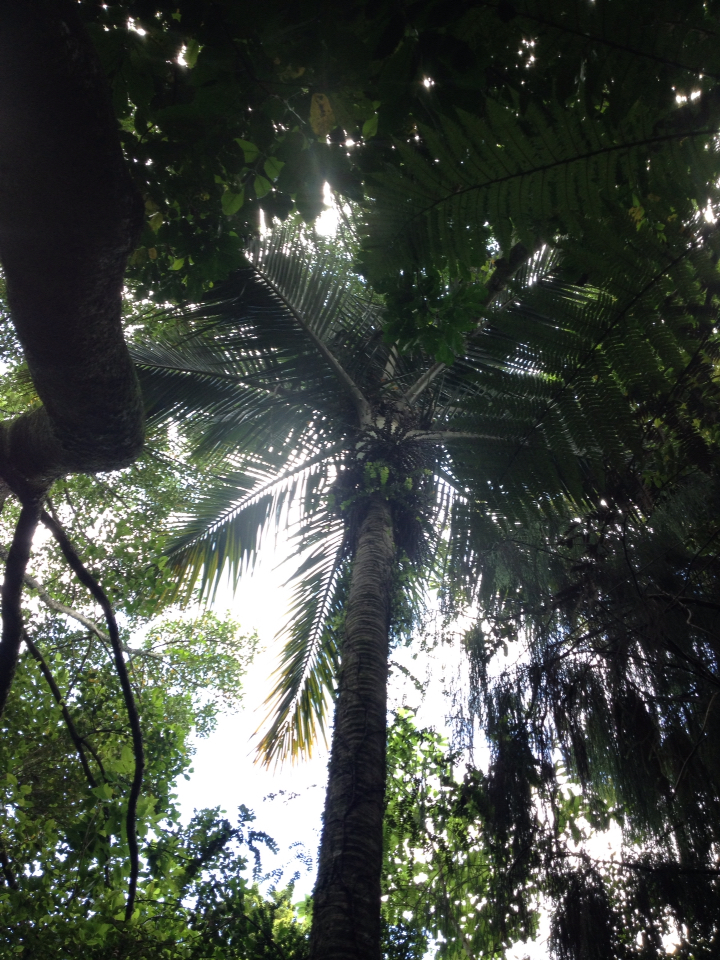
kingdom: Plantae
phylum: Tracheophyta
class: Liliopsida
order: Arecales
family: Arecaceae
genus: Rhopalostylis
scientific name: Rhopalostylis sapida
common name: Feather-duster palm
